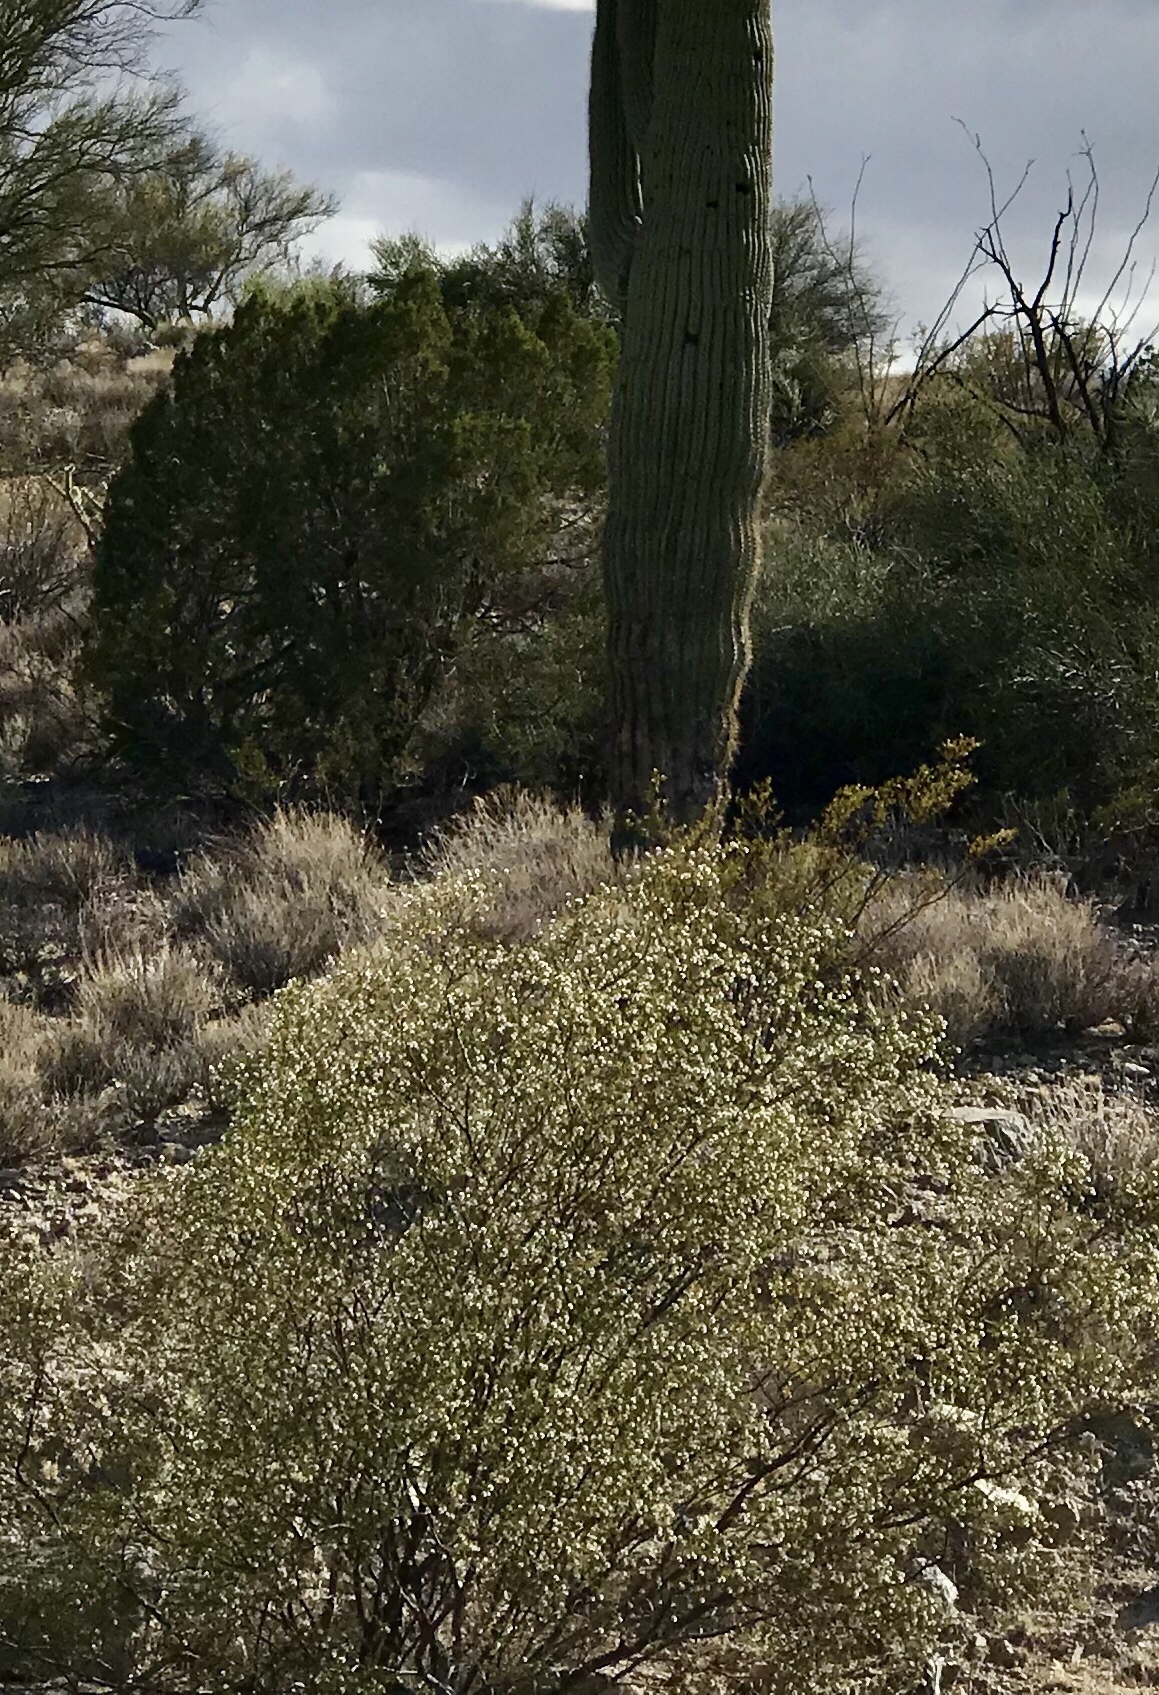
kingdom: Plantae
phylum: Tracheophyta
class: Magnoliopsida
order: Zygophyllales
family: Zygophyllaceae
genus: Larrea
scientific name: Larrea tridentata
